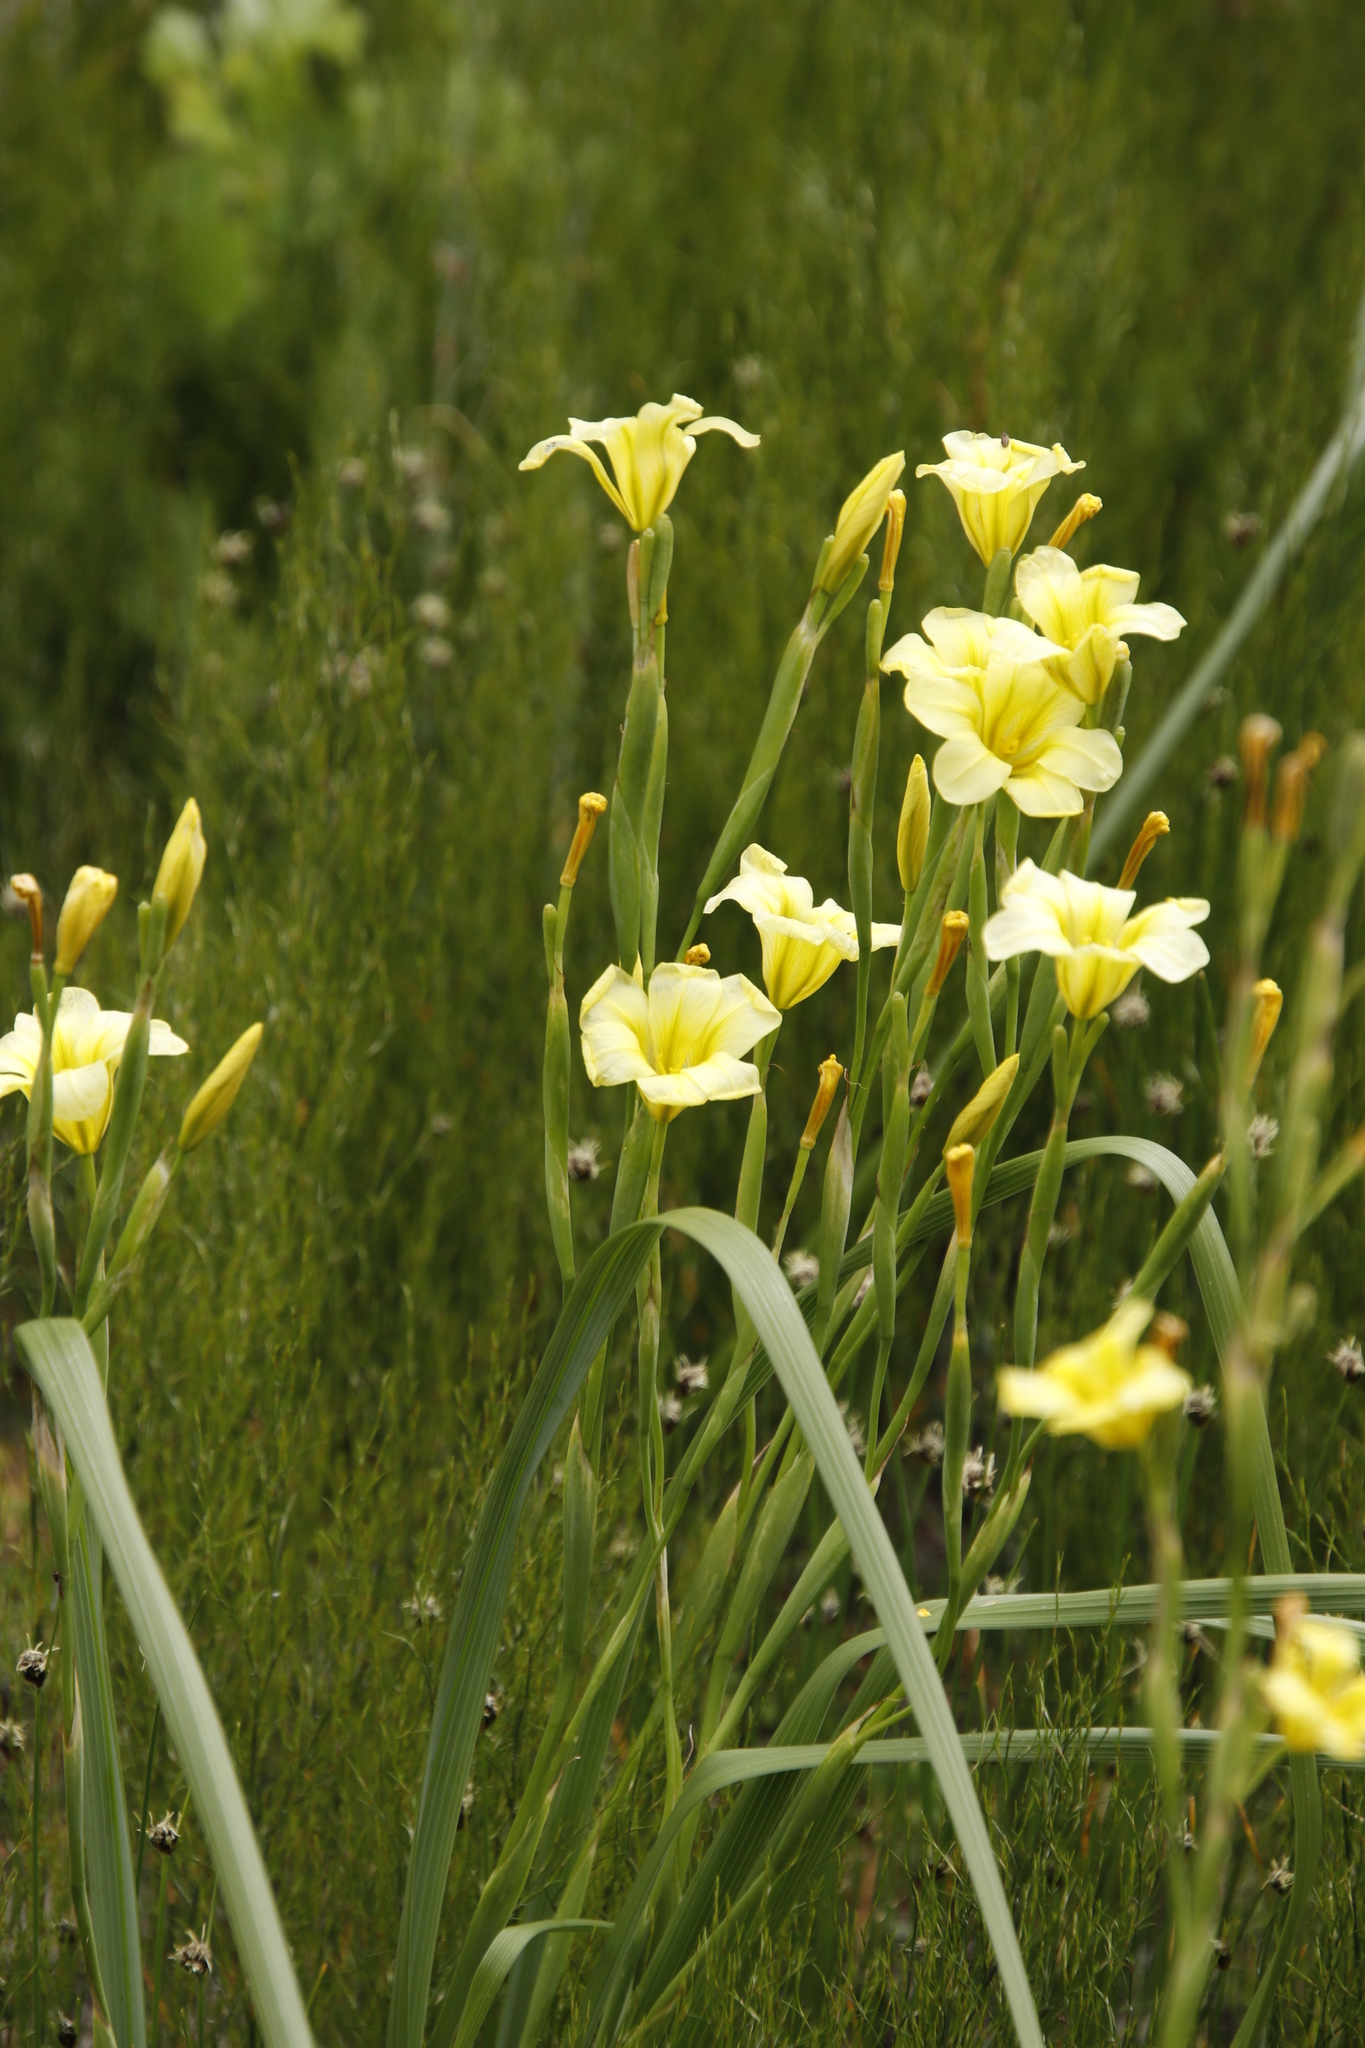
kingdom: Plantae
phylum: Tracheophyta
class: Liliopsida
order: Asparagales
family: Iridaceae
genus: Moraea
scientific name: Moraea ochroleuca
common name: Red tulp
